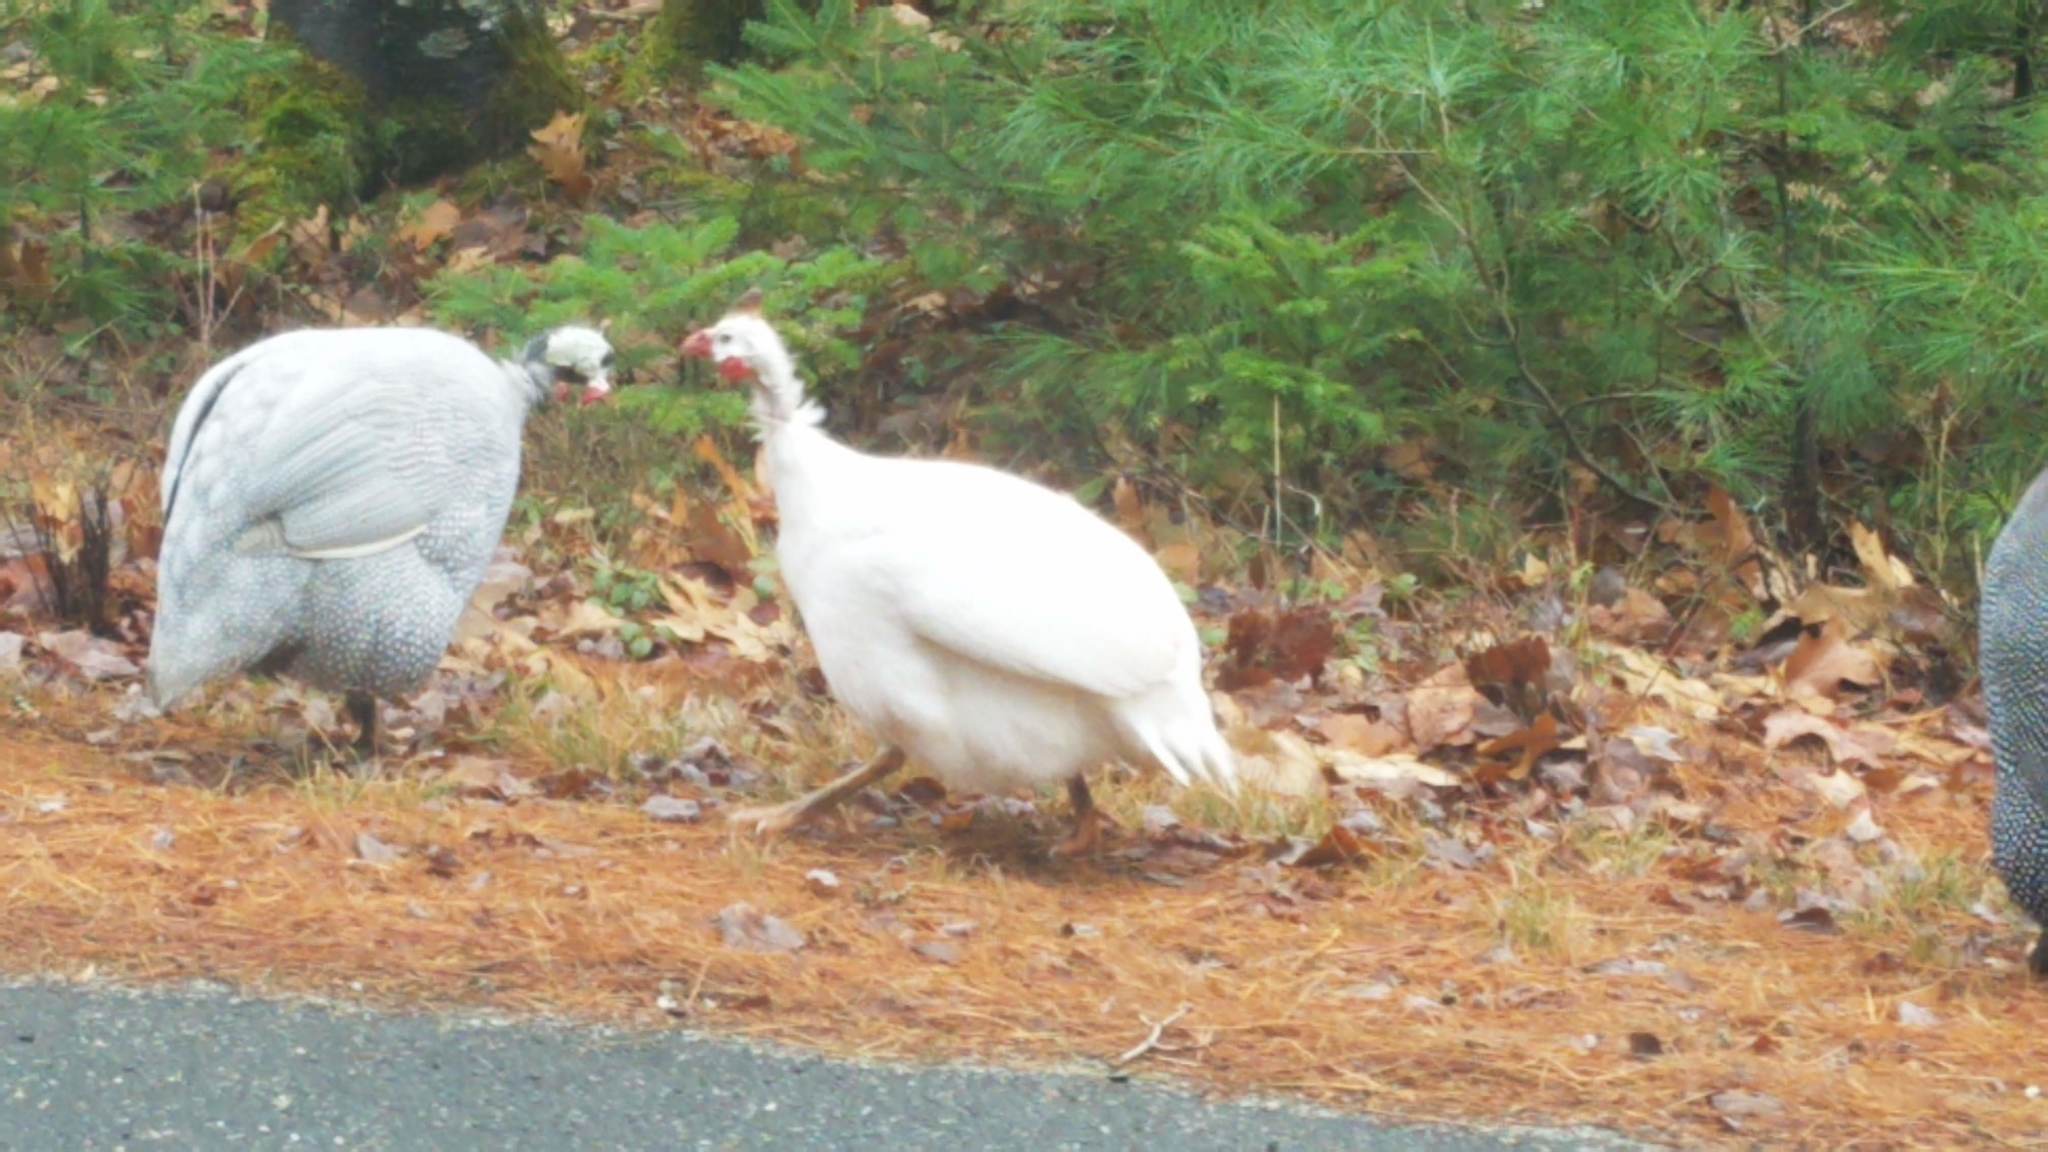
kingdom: Animalia
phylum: Chordata
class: Aves
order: Galliformes
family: Numididae
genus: Numida
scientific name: Numida meleagris
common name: Helmeted guineafowl
